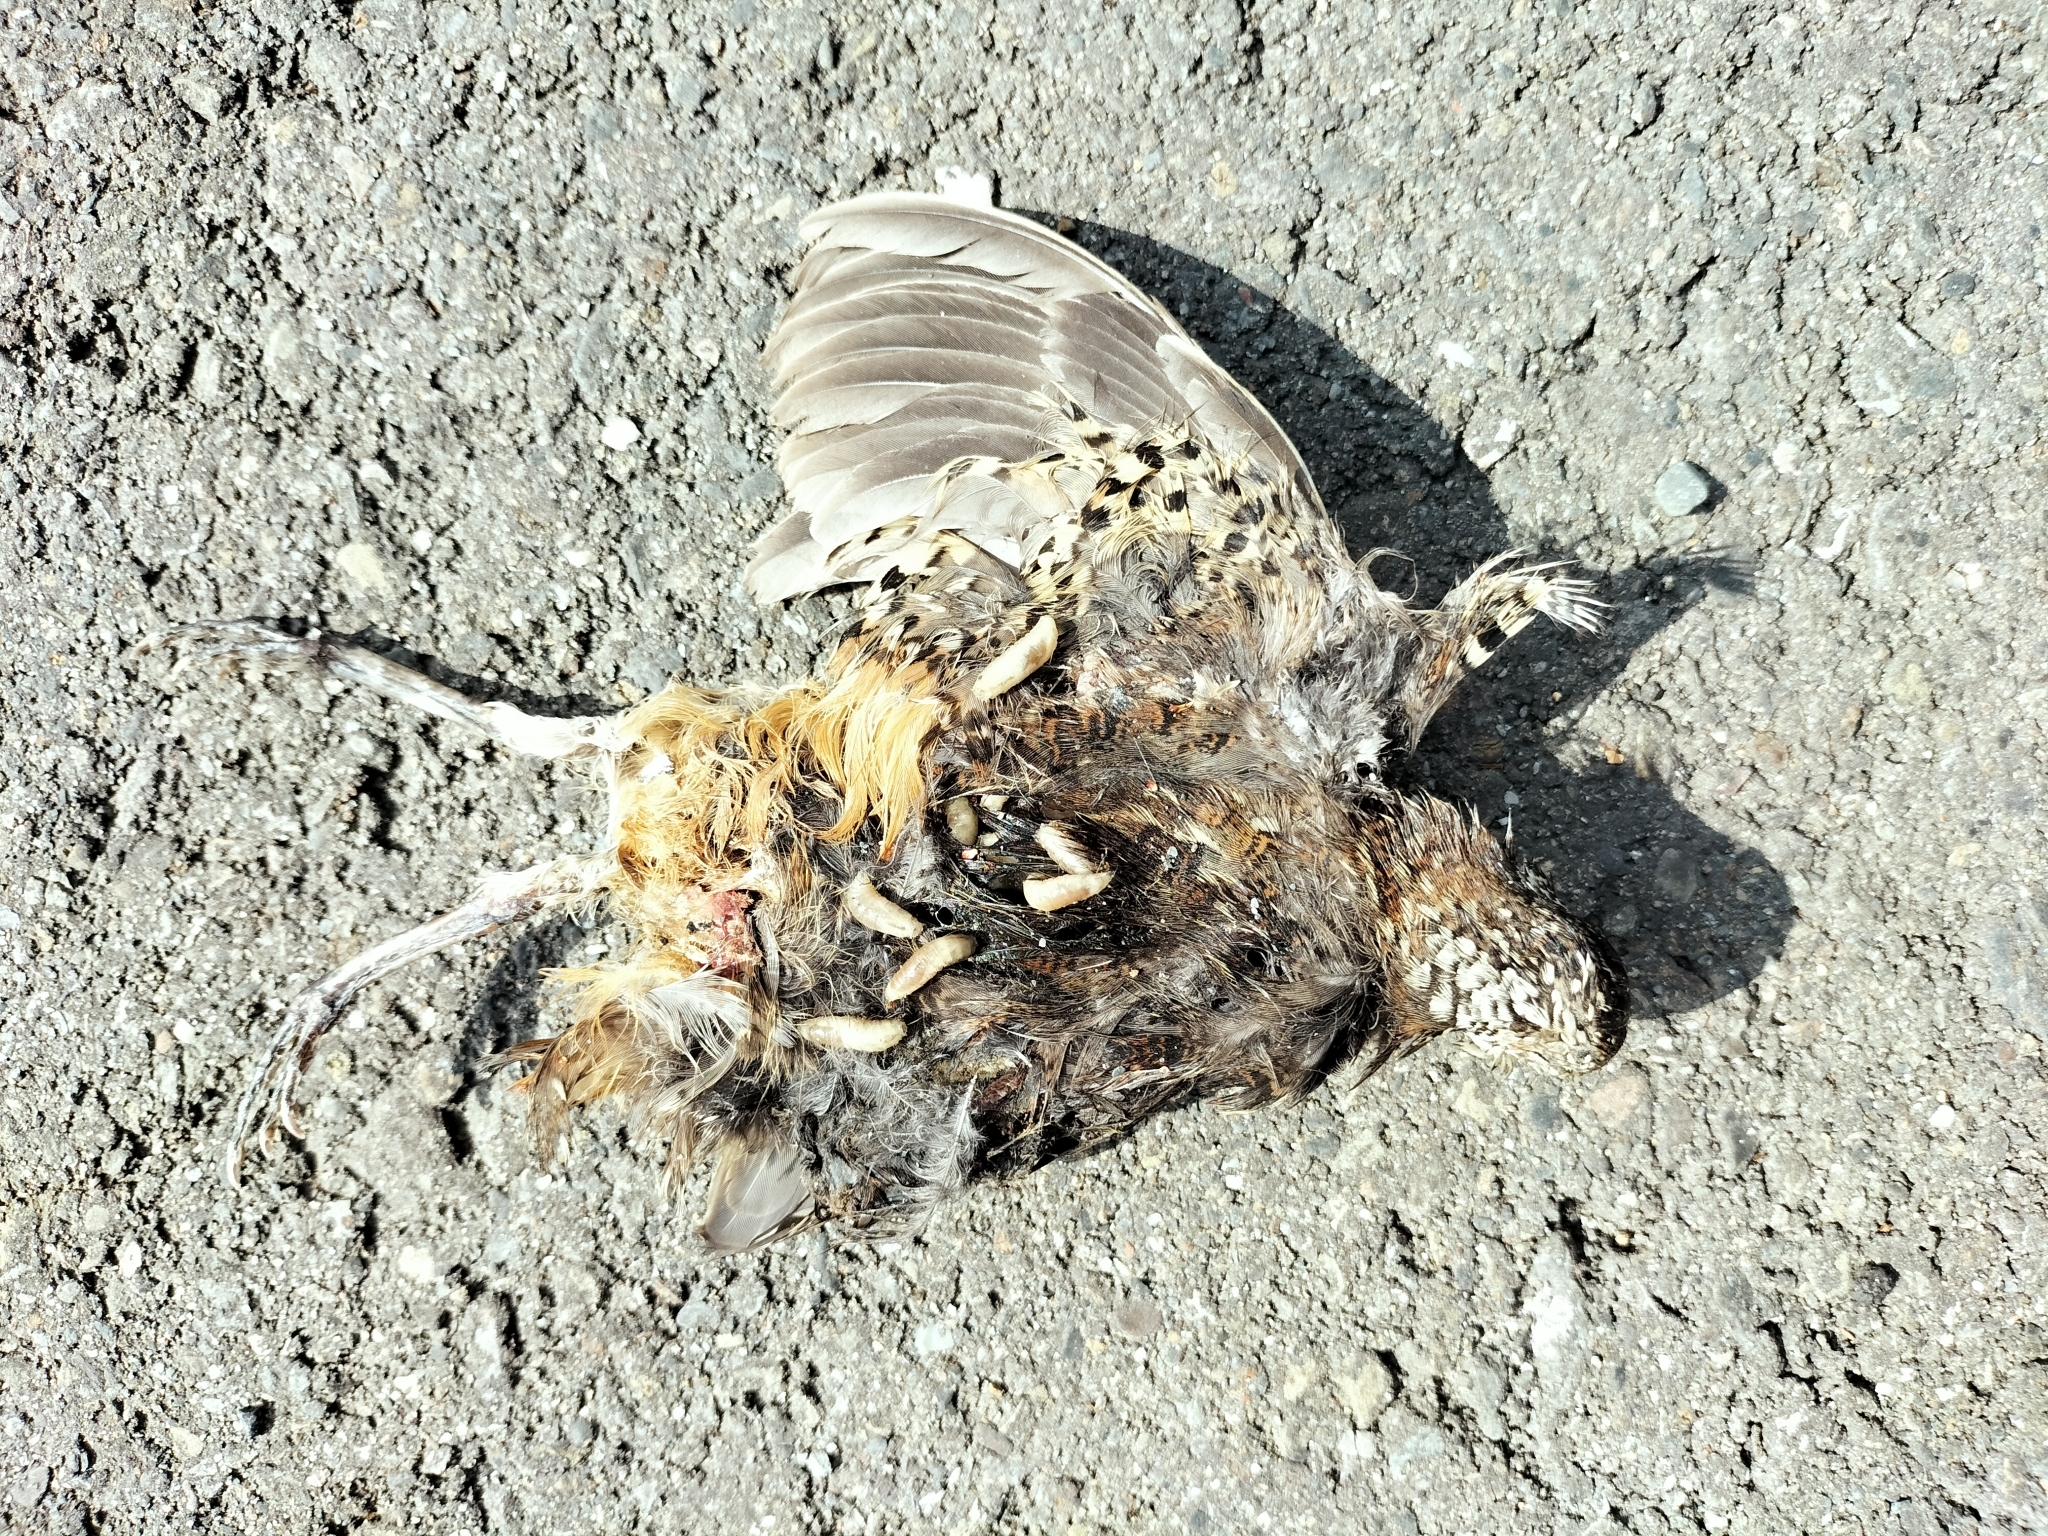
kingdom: Animalia
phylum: Chordata
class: Aves
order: Charadriiformes
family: Turnicidae
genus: Turnix
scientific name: Turnix suscitator
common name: Barred buttonquail
